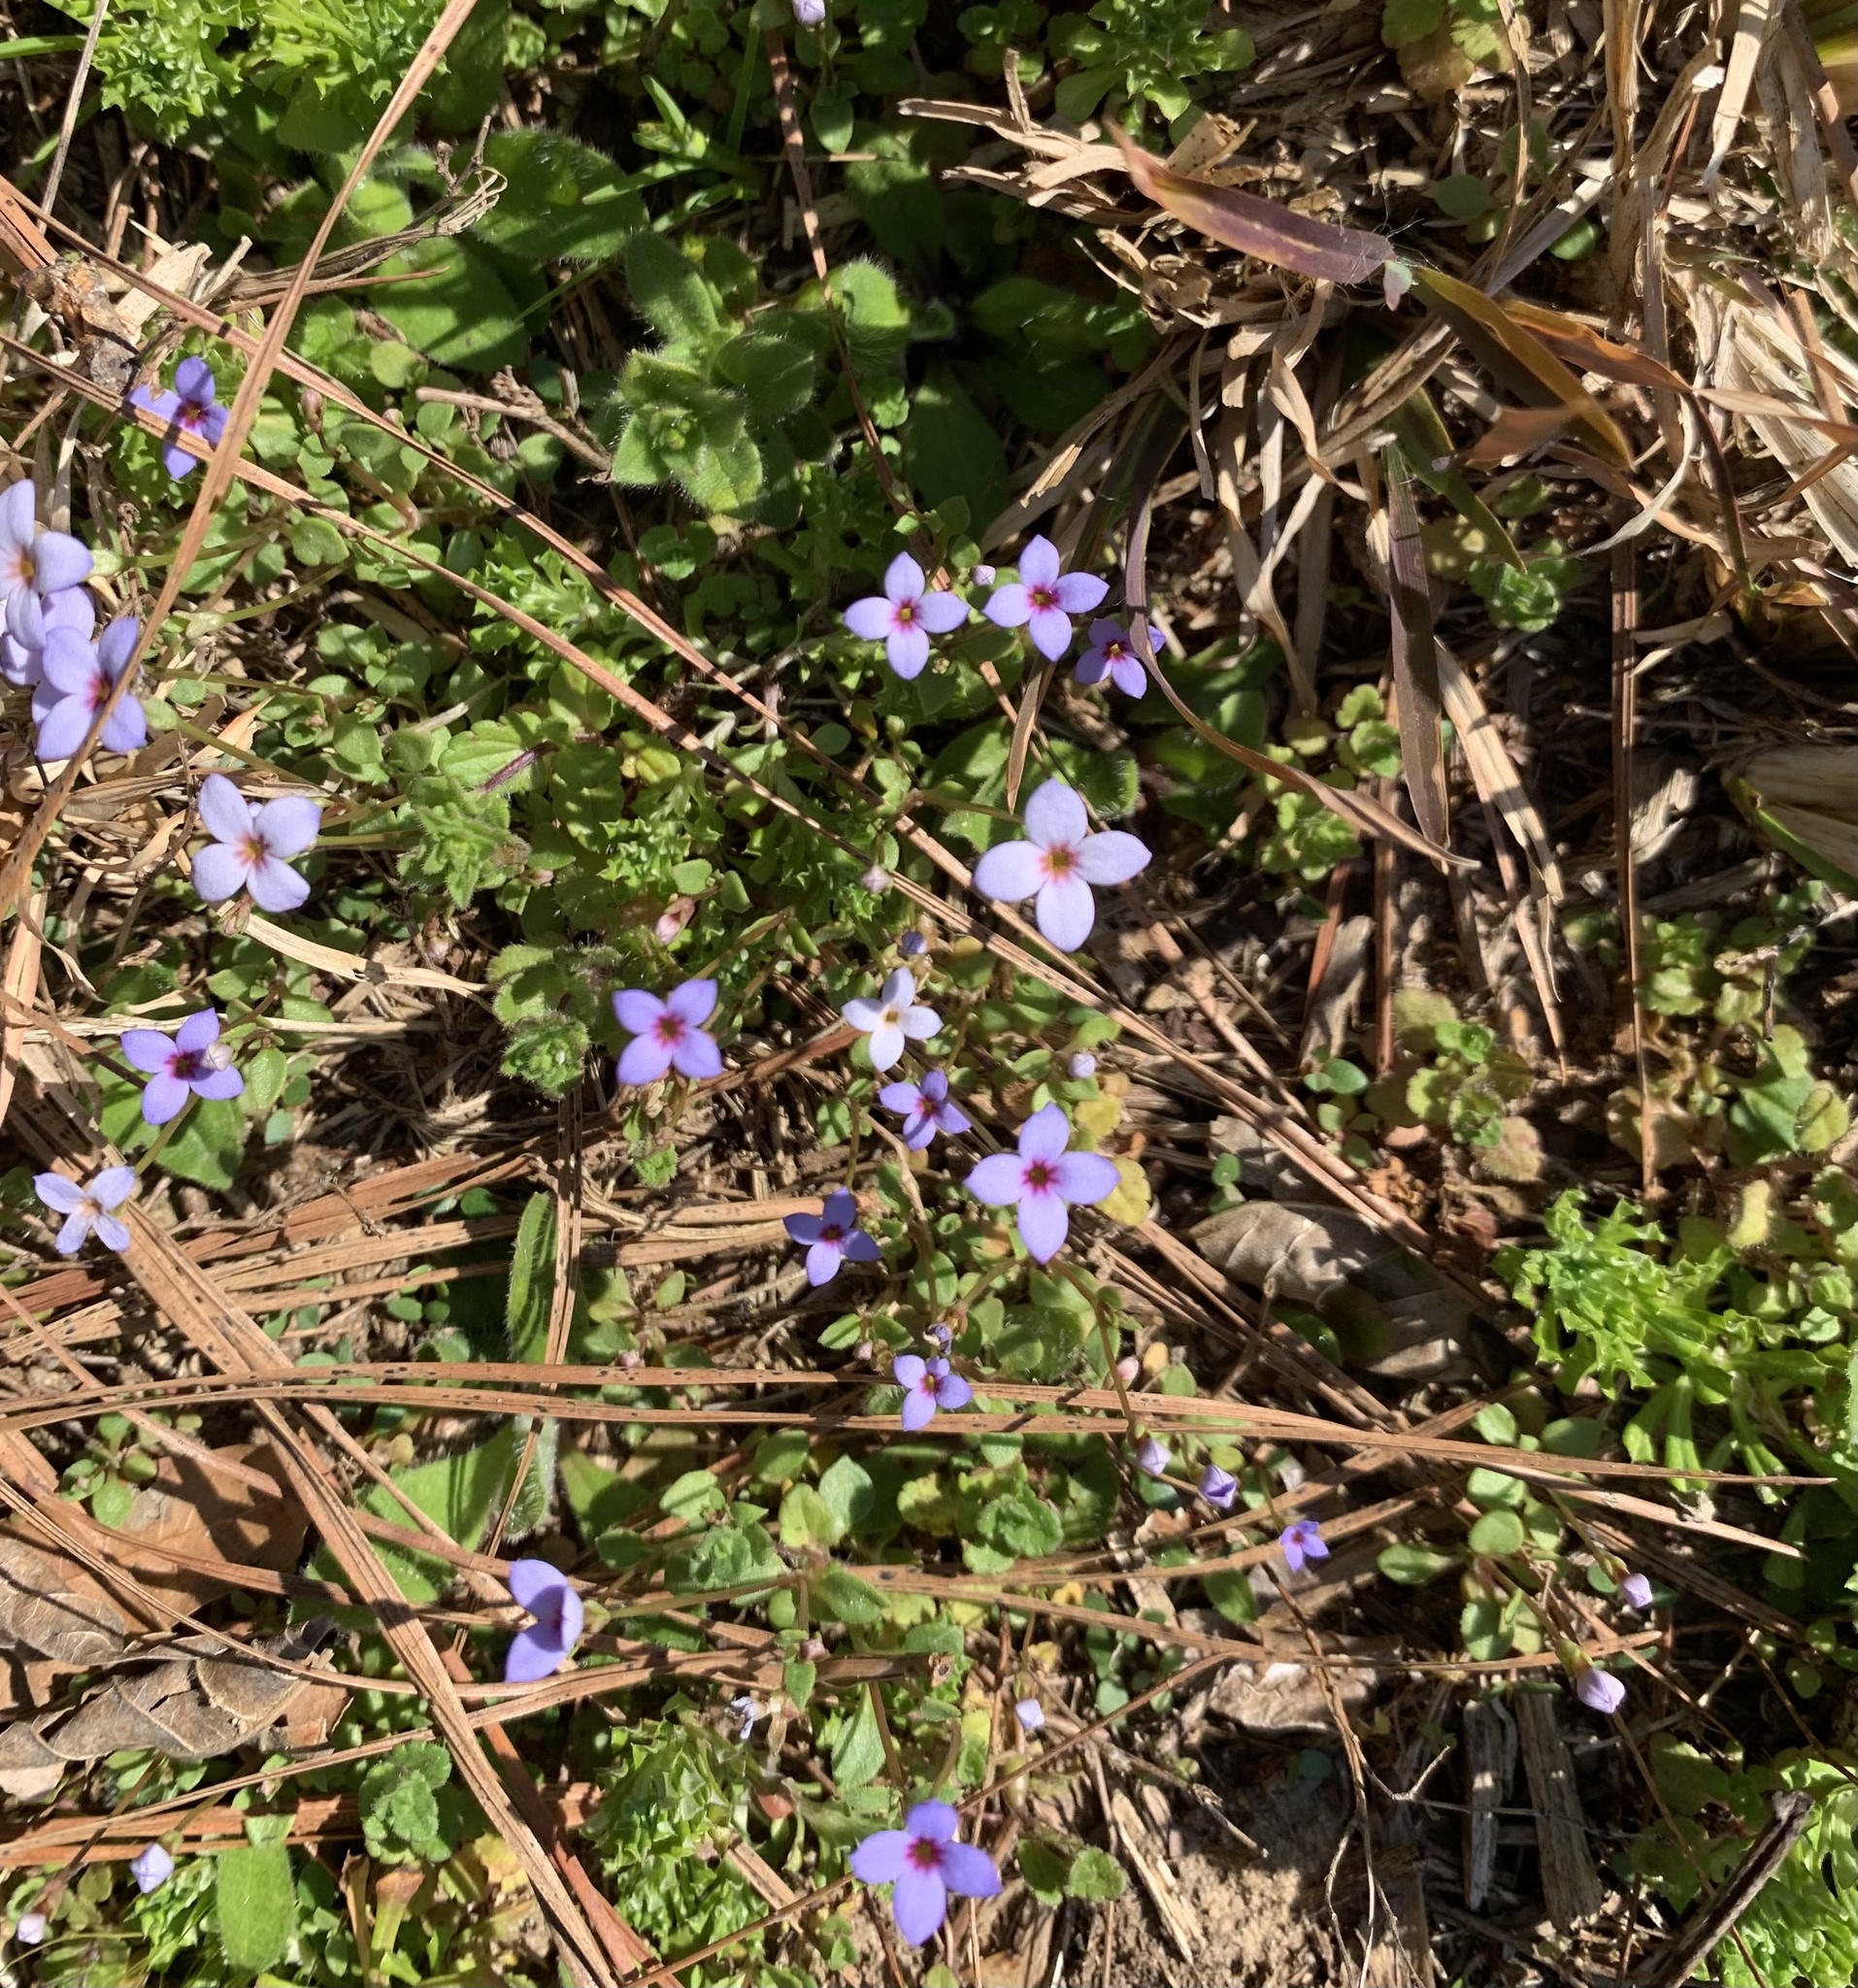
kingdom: Plantae
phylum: Tracheophyta
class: Magnoliopsida
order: Gentianales
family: Rubiaceae
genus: Houstonia
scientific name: Houstonia pusilla
